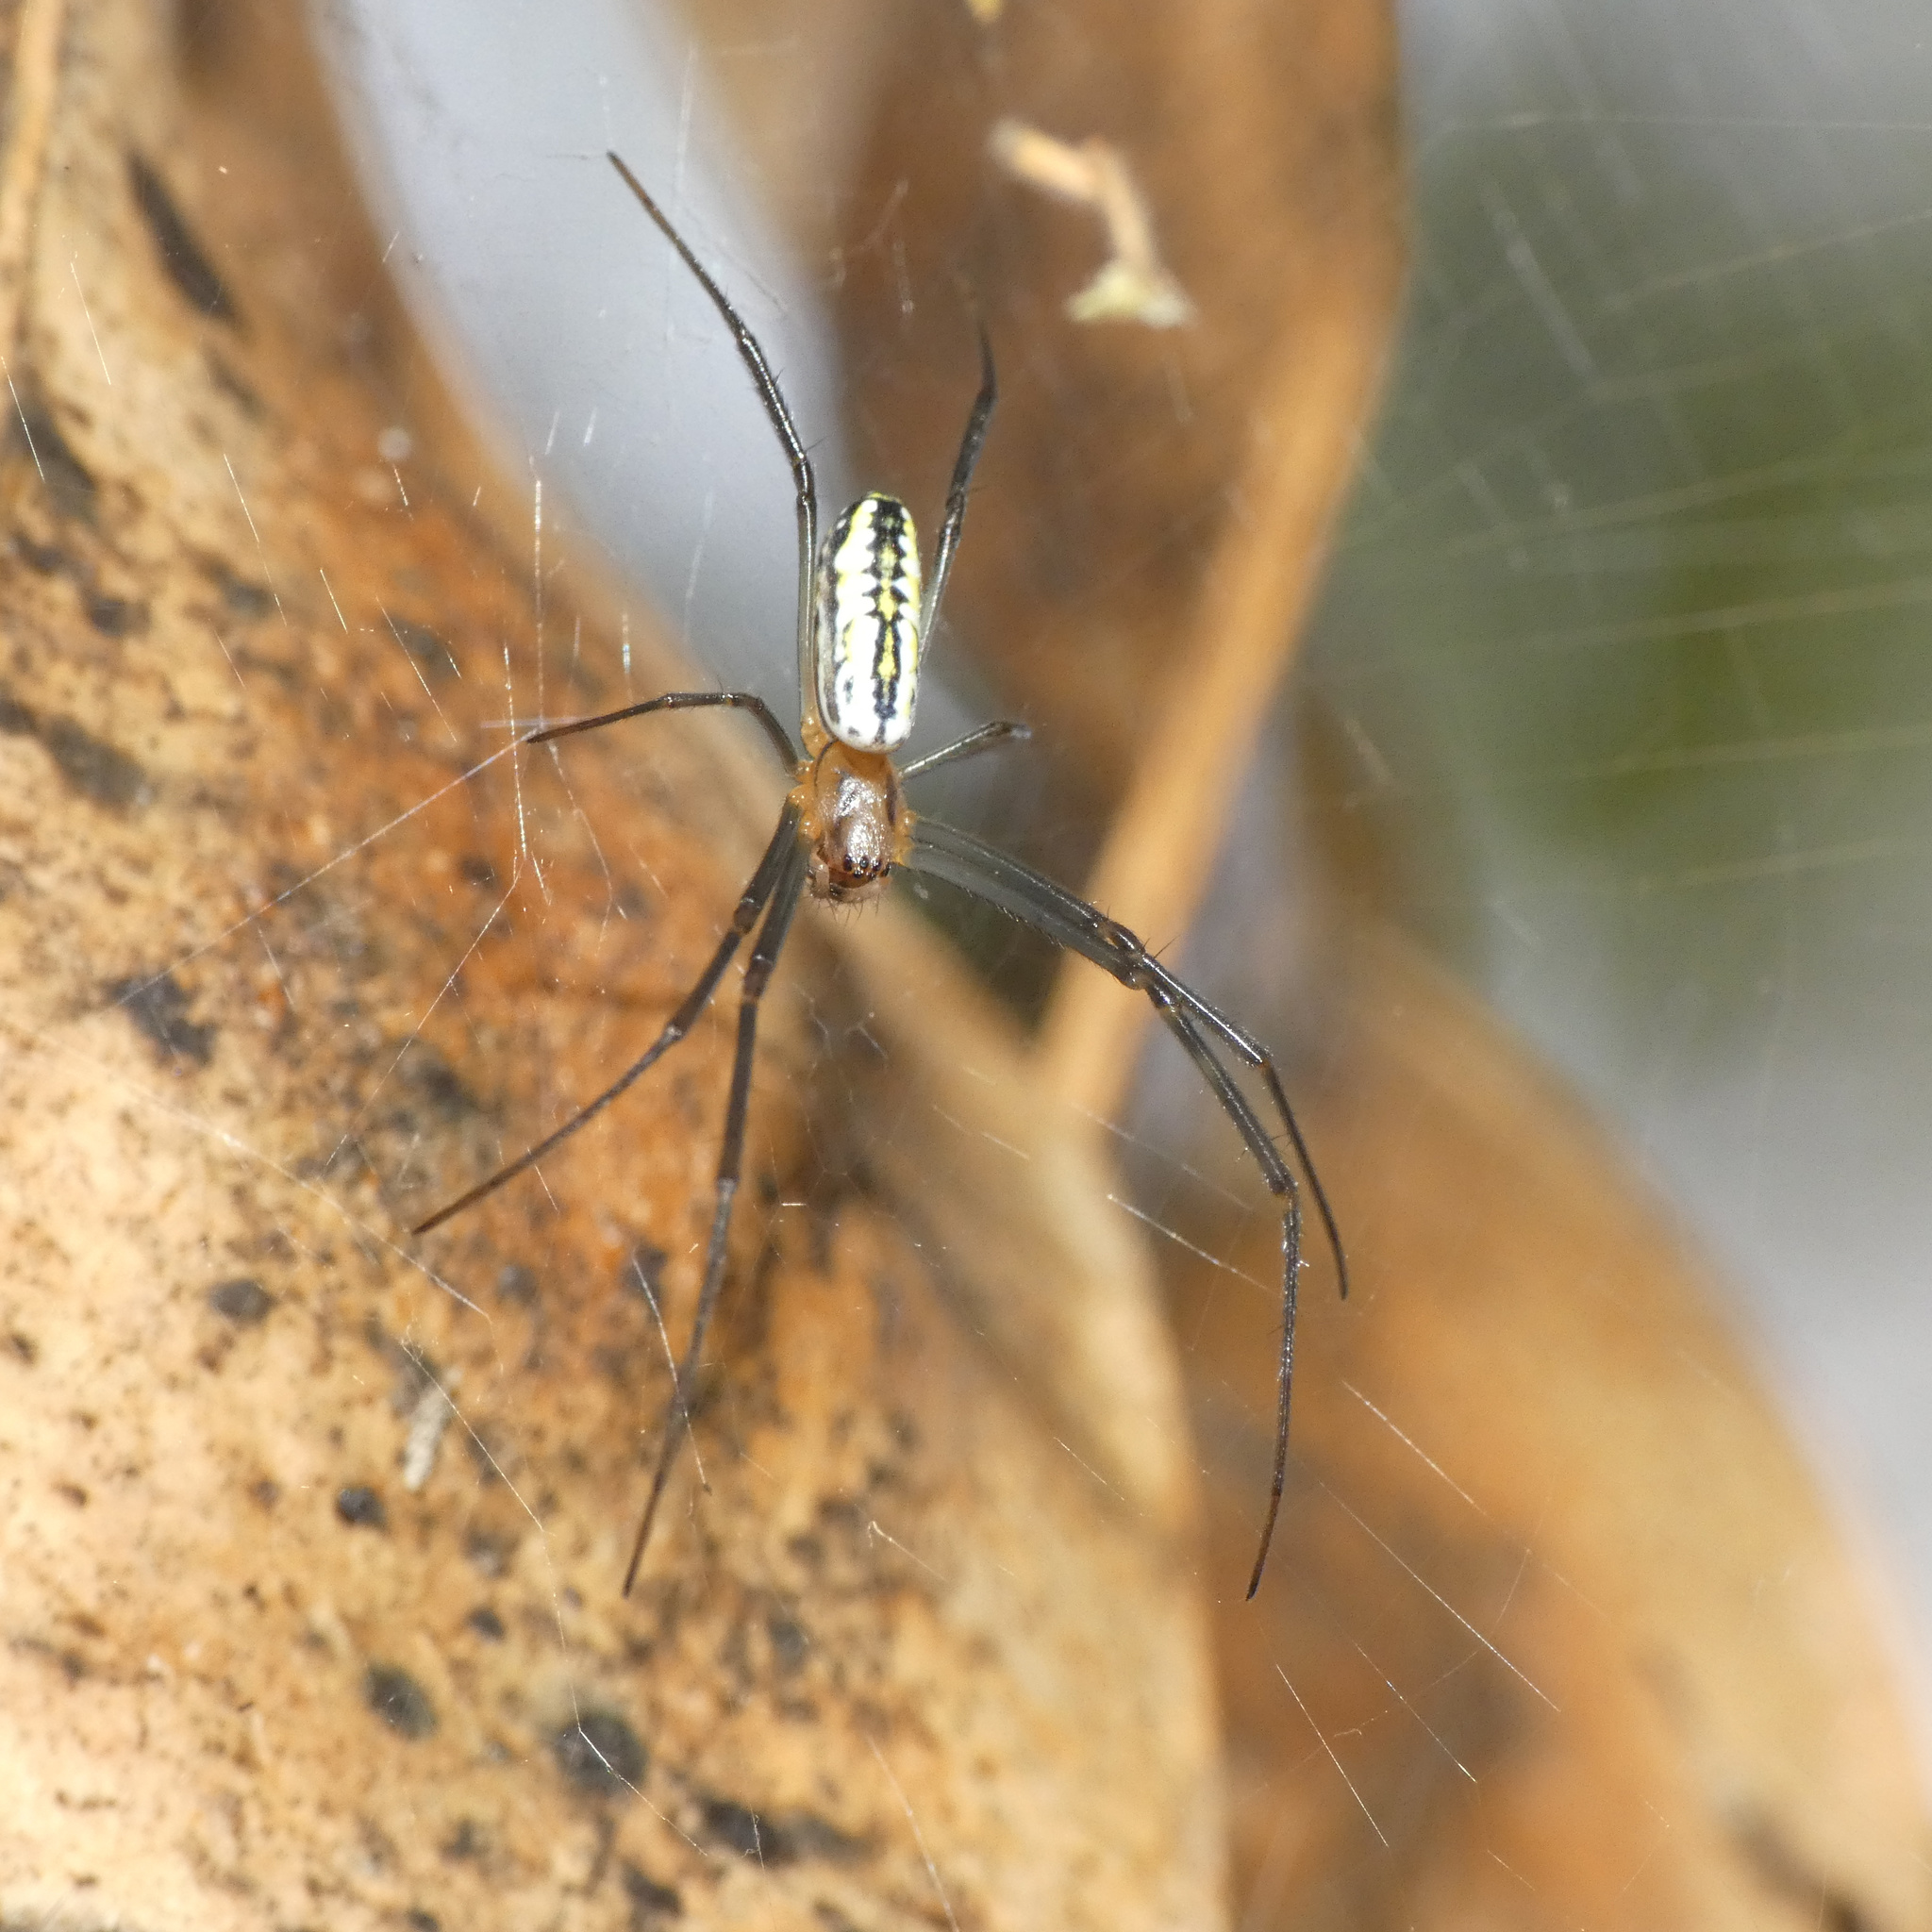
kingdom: Animalia
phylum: Arthropoda
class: Arachnida
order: Araneae
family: Araneidae
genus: Trichonephila
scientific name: Trichonephila fenestrata
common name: Hairy golden orb weaver
